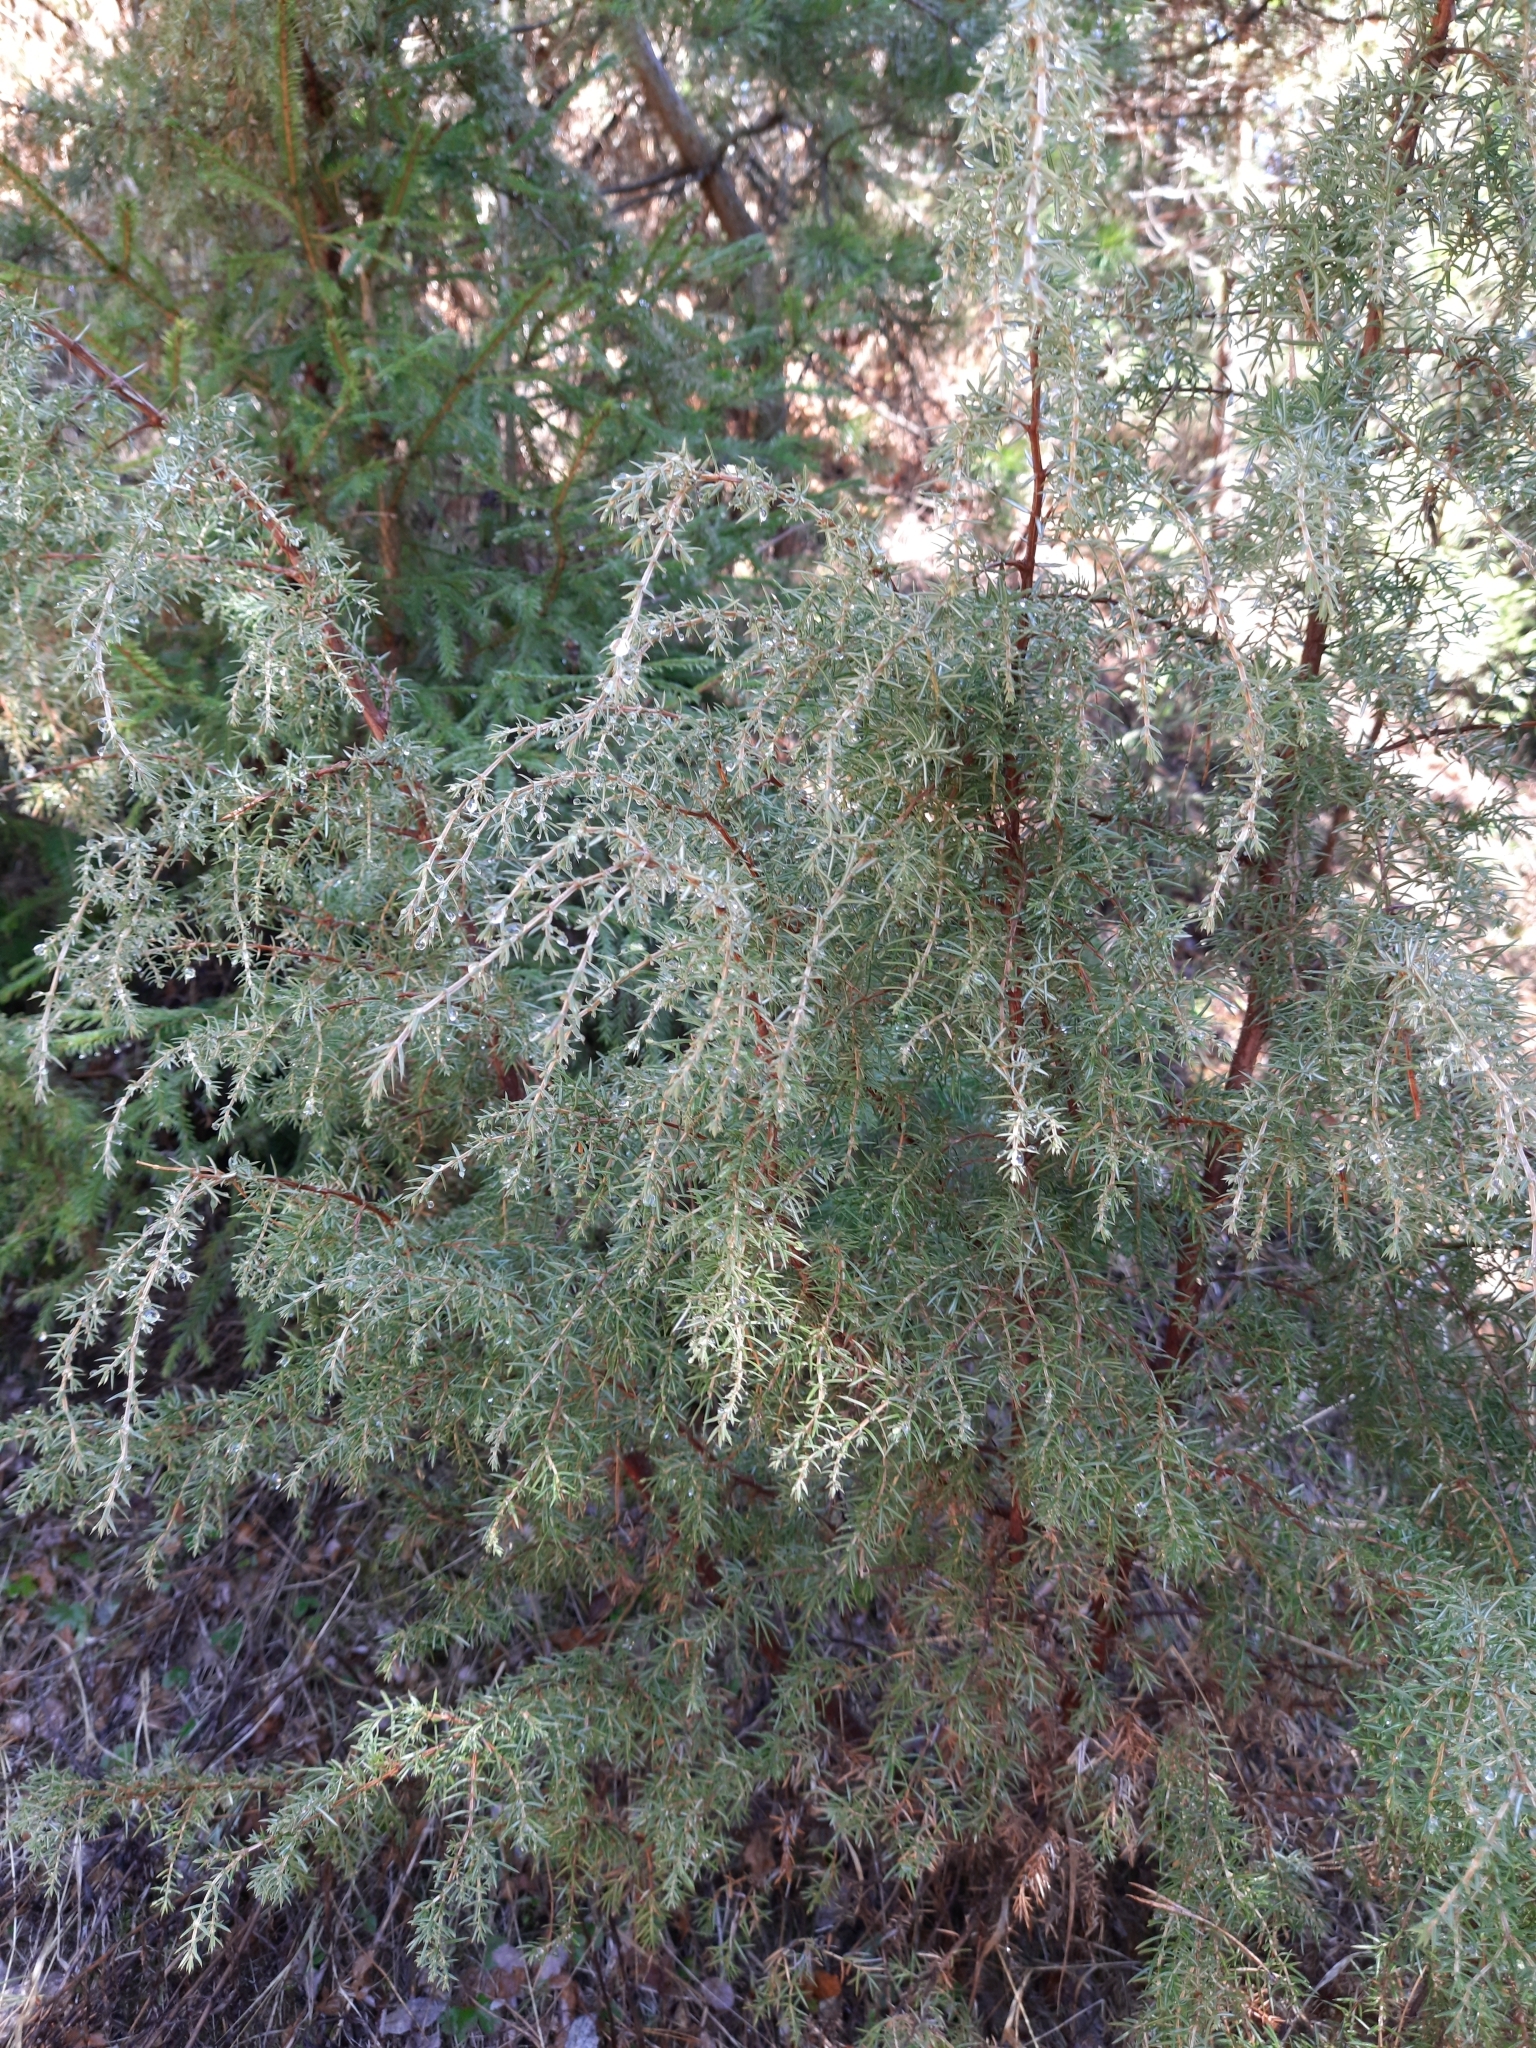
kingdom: Plantae
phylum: Tracheophyta
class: Pinopsida
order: Pinales
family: Cupressaceae
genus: Juniperus
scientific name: Juniperus communis
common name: Common juniper
